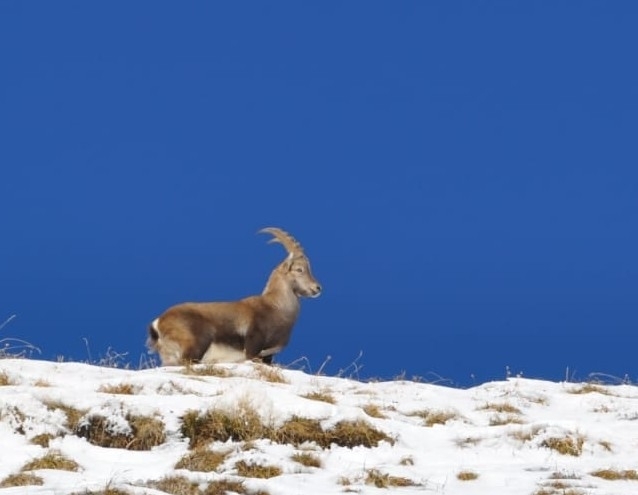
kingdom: Animalia
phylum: Chordata
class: Mammalia
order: Artiodactyla
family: Bovidae
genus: Capra
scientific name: Capra ibex
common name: Alpine ibex
